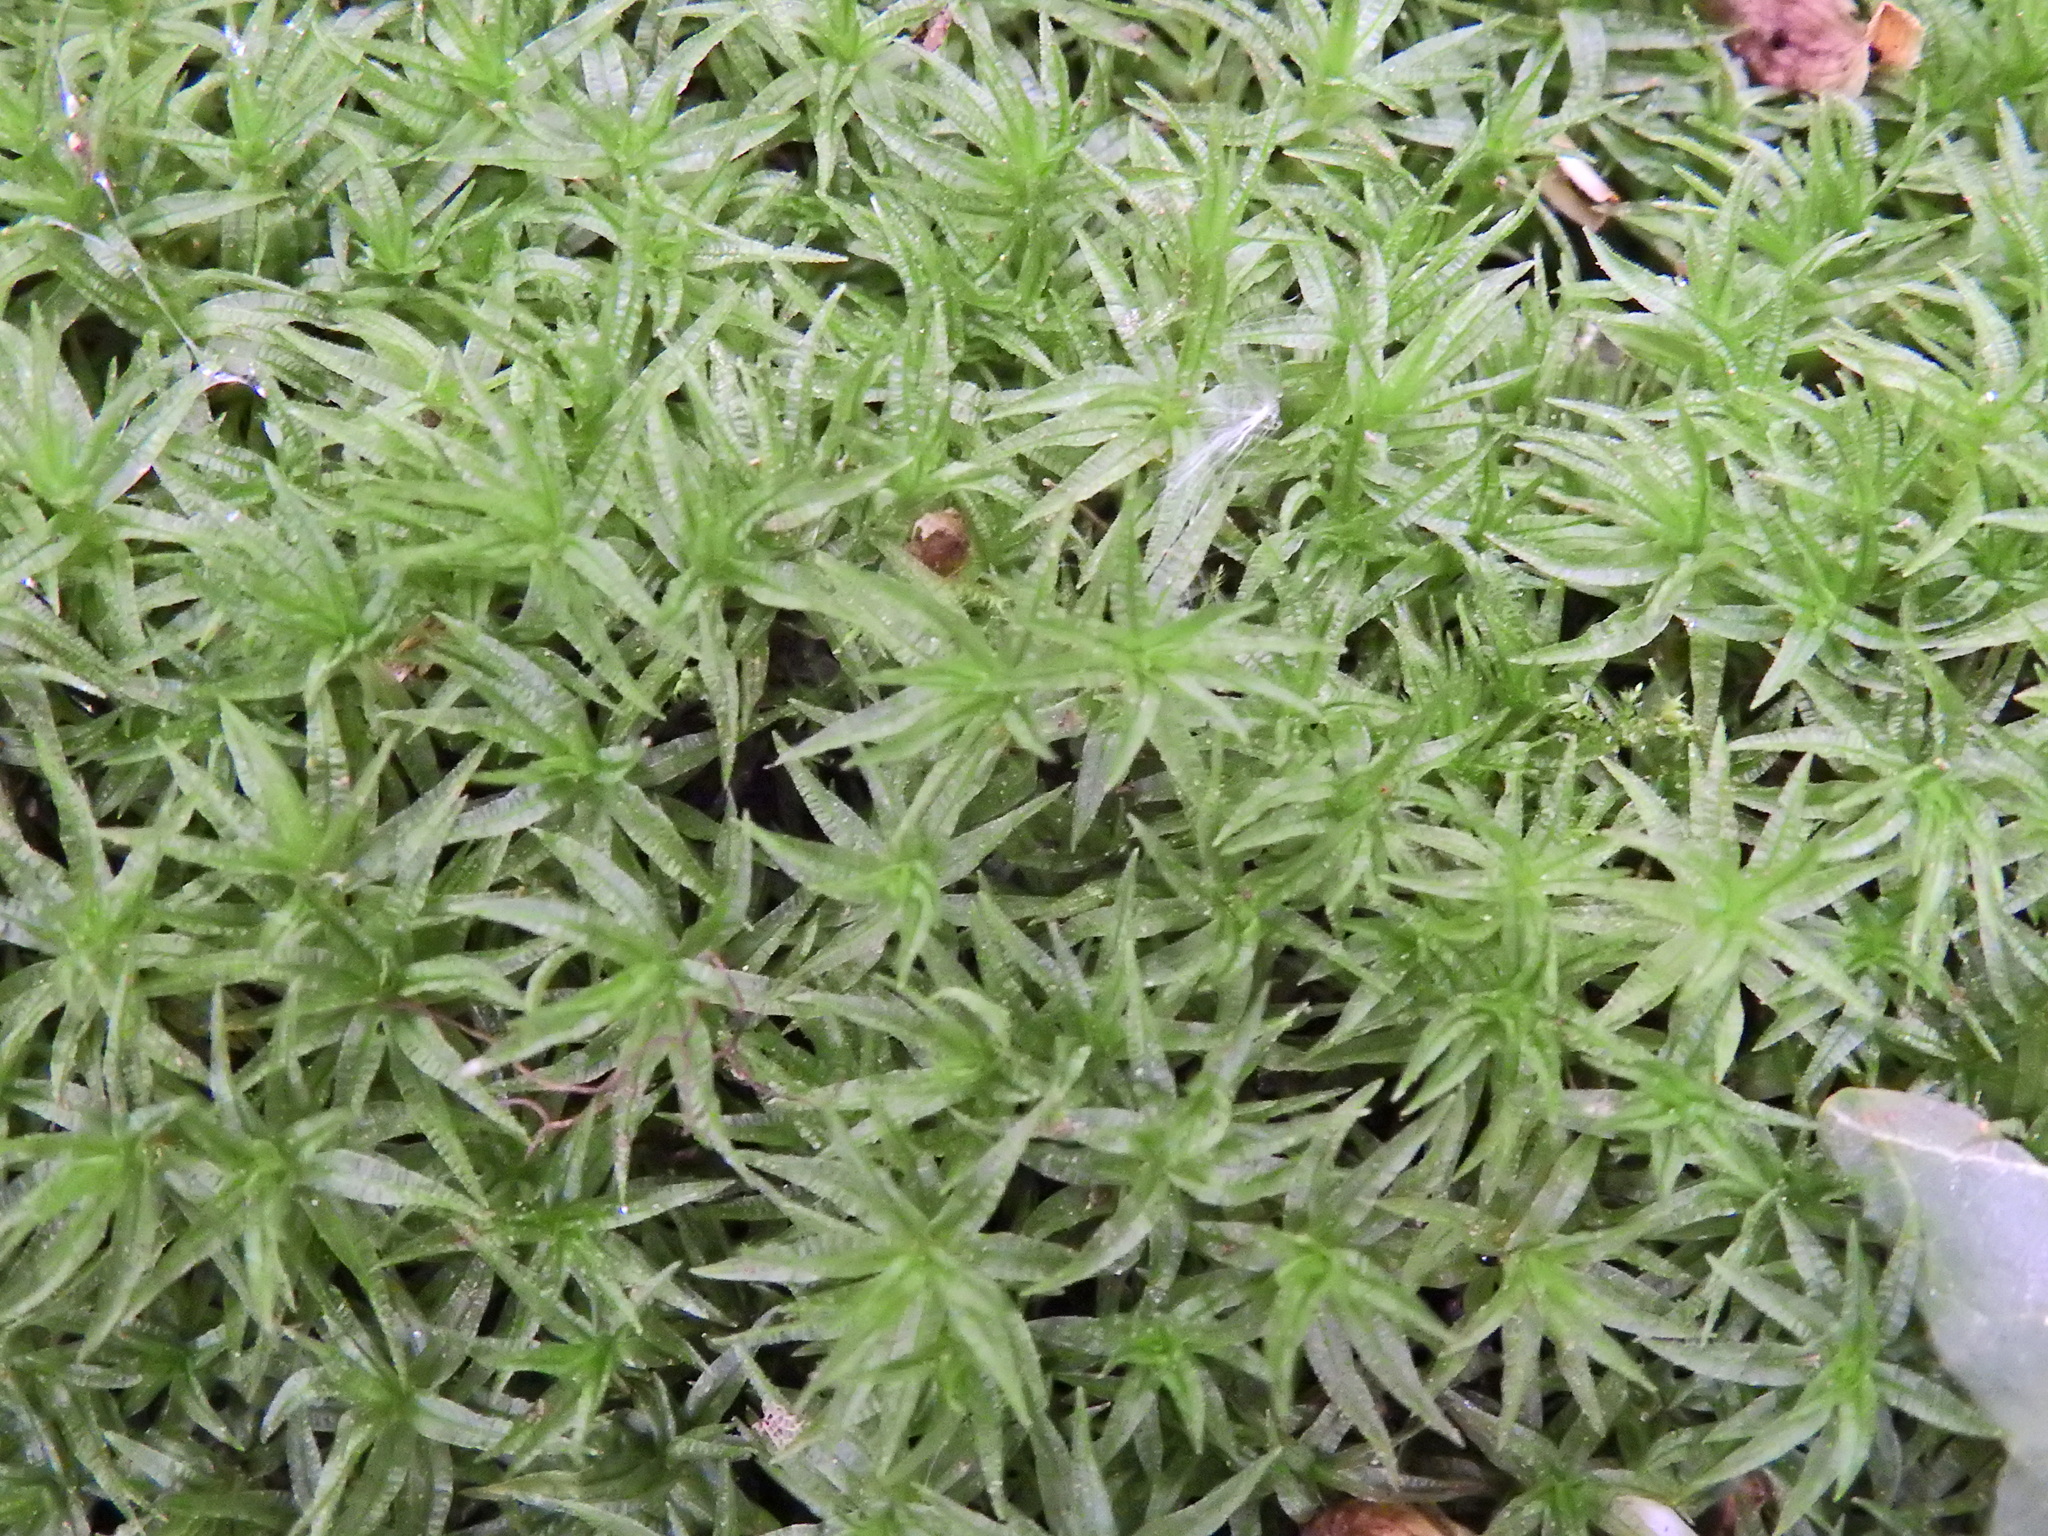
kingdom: Plantae
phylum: Bryophyta
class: Polytrichopsida
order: Polytrichales
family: Polytrichaceae
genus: Atrichum
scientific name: Atrichum undulatum
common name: Common smoothcap
